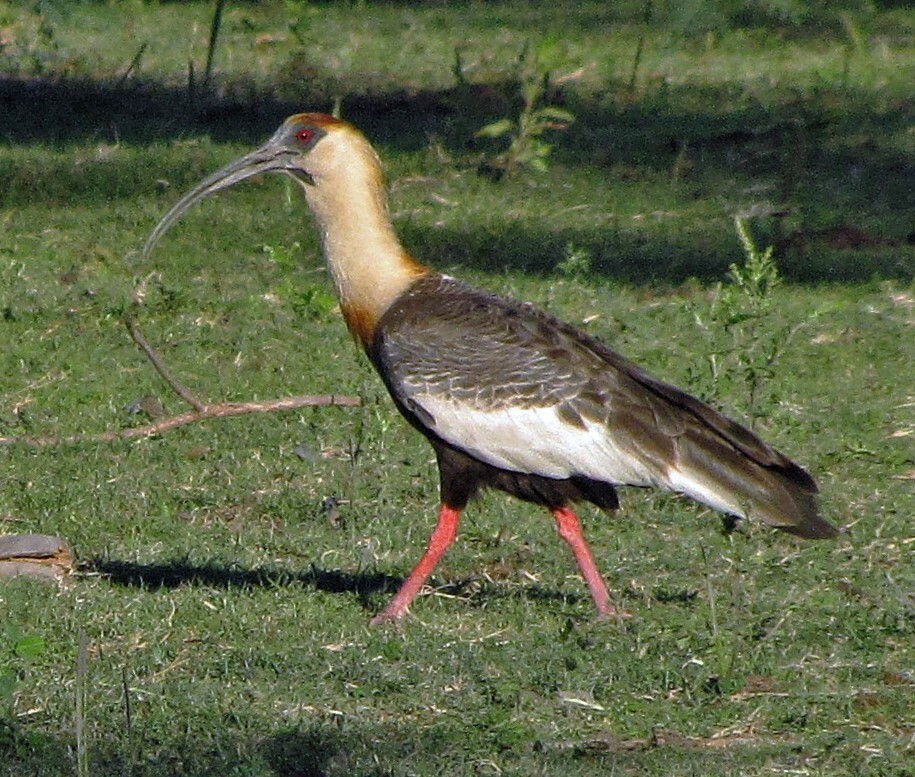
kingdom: Animalia
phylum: Chordata
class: Aves
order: Pelecaniformes
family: Threskiornithidae
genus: Theristicus
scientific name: Theristicus caudatus
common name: Buff-necked ibis
